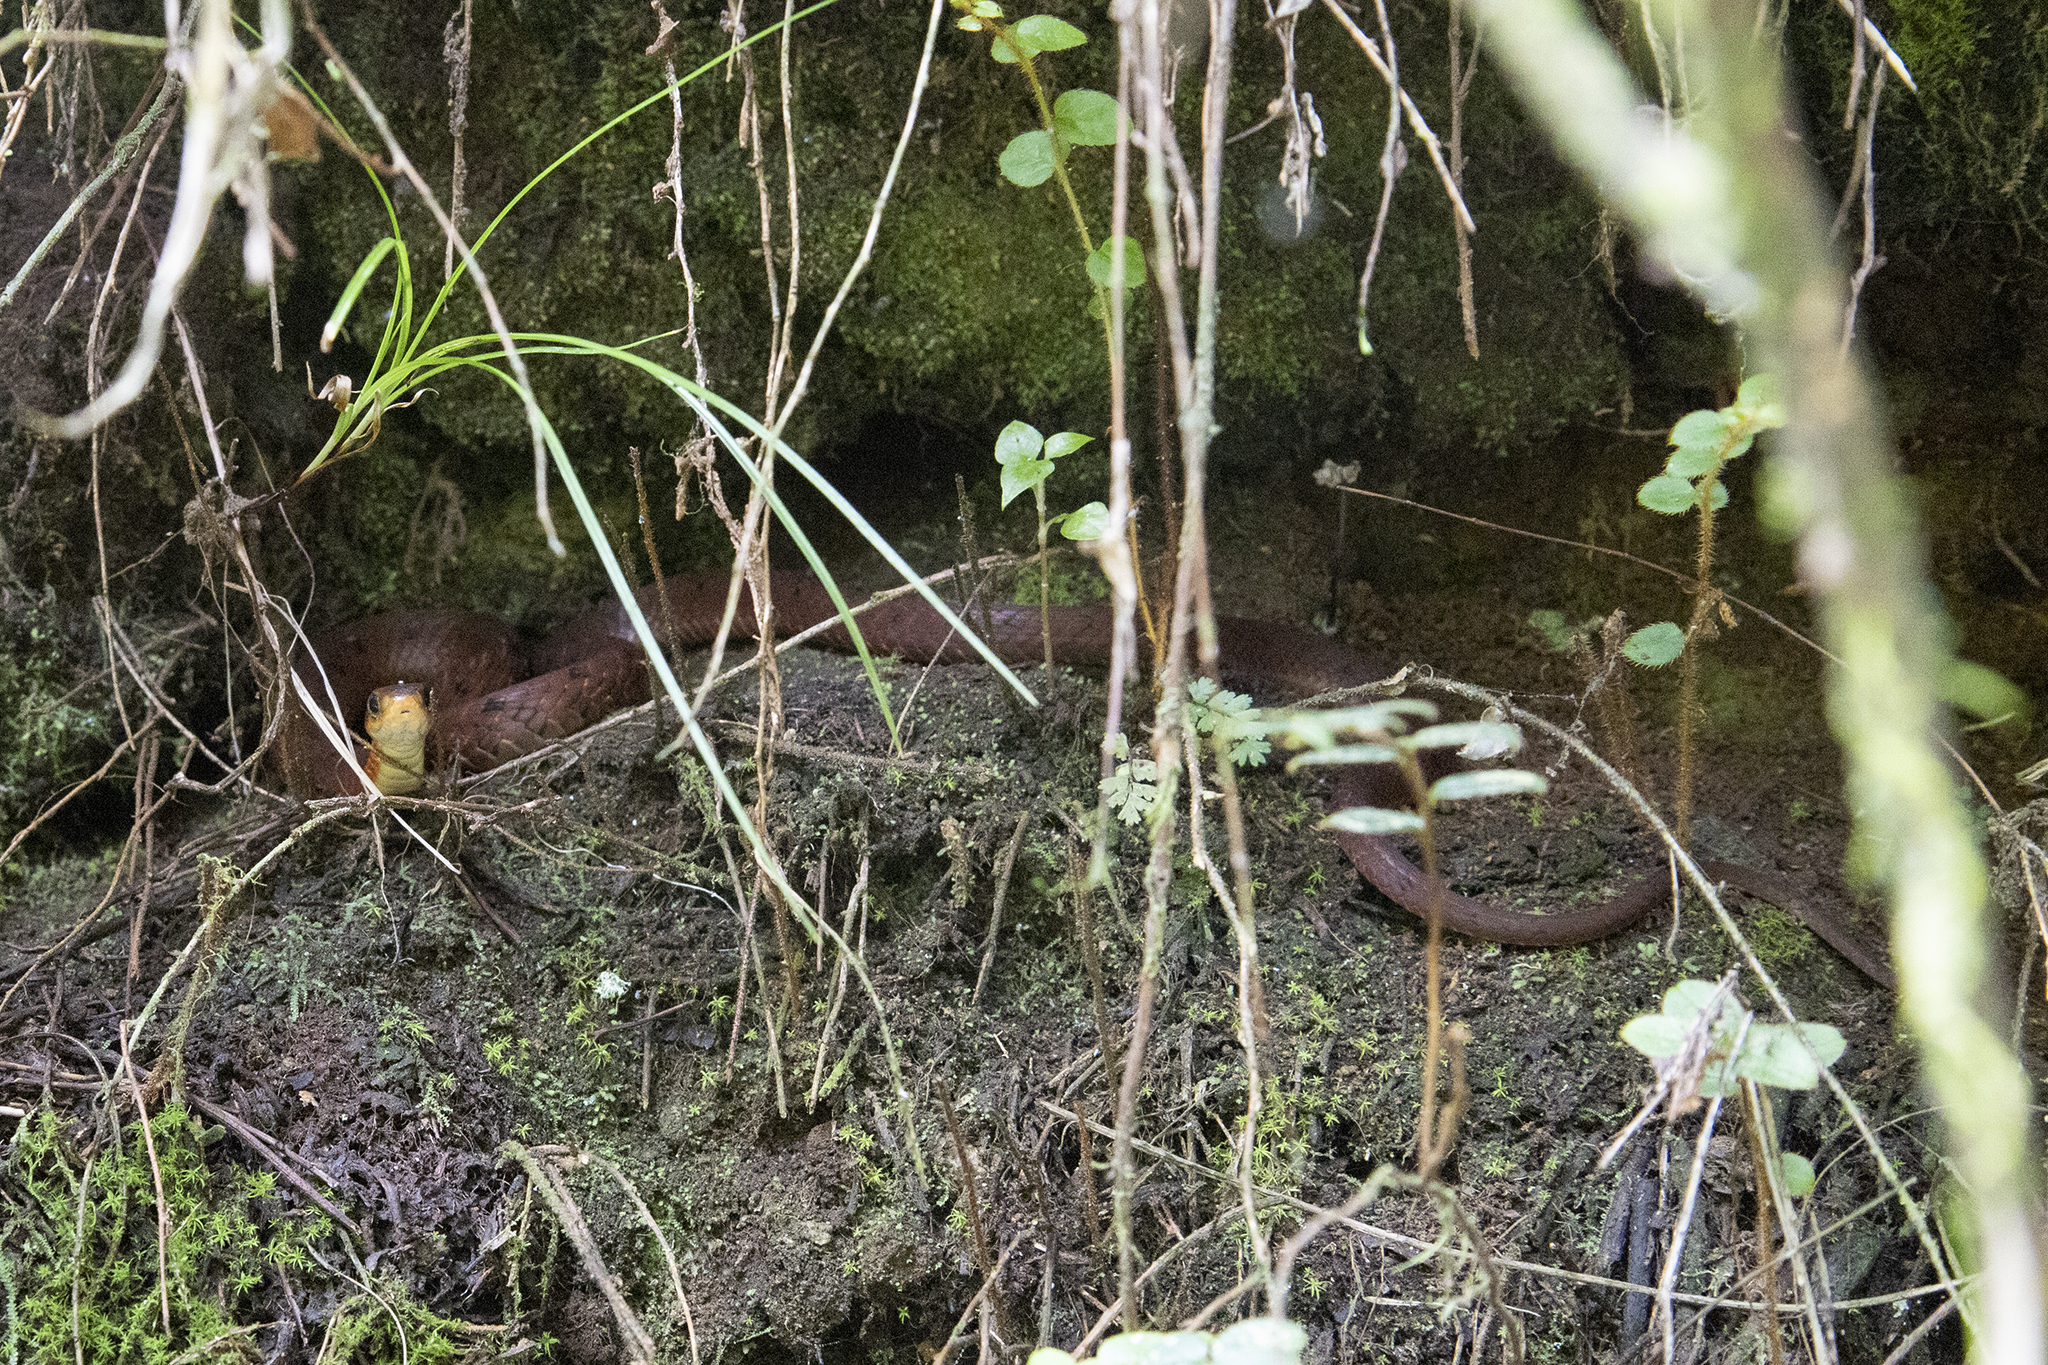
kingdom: Animalia
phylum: Chordata
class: Squamata
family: Colubridae
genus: Pseudoxenodon
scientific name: Pseudoxenodon macrops
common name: Big-eyed mountain keelback
